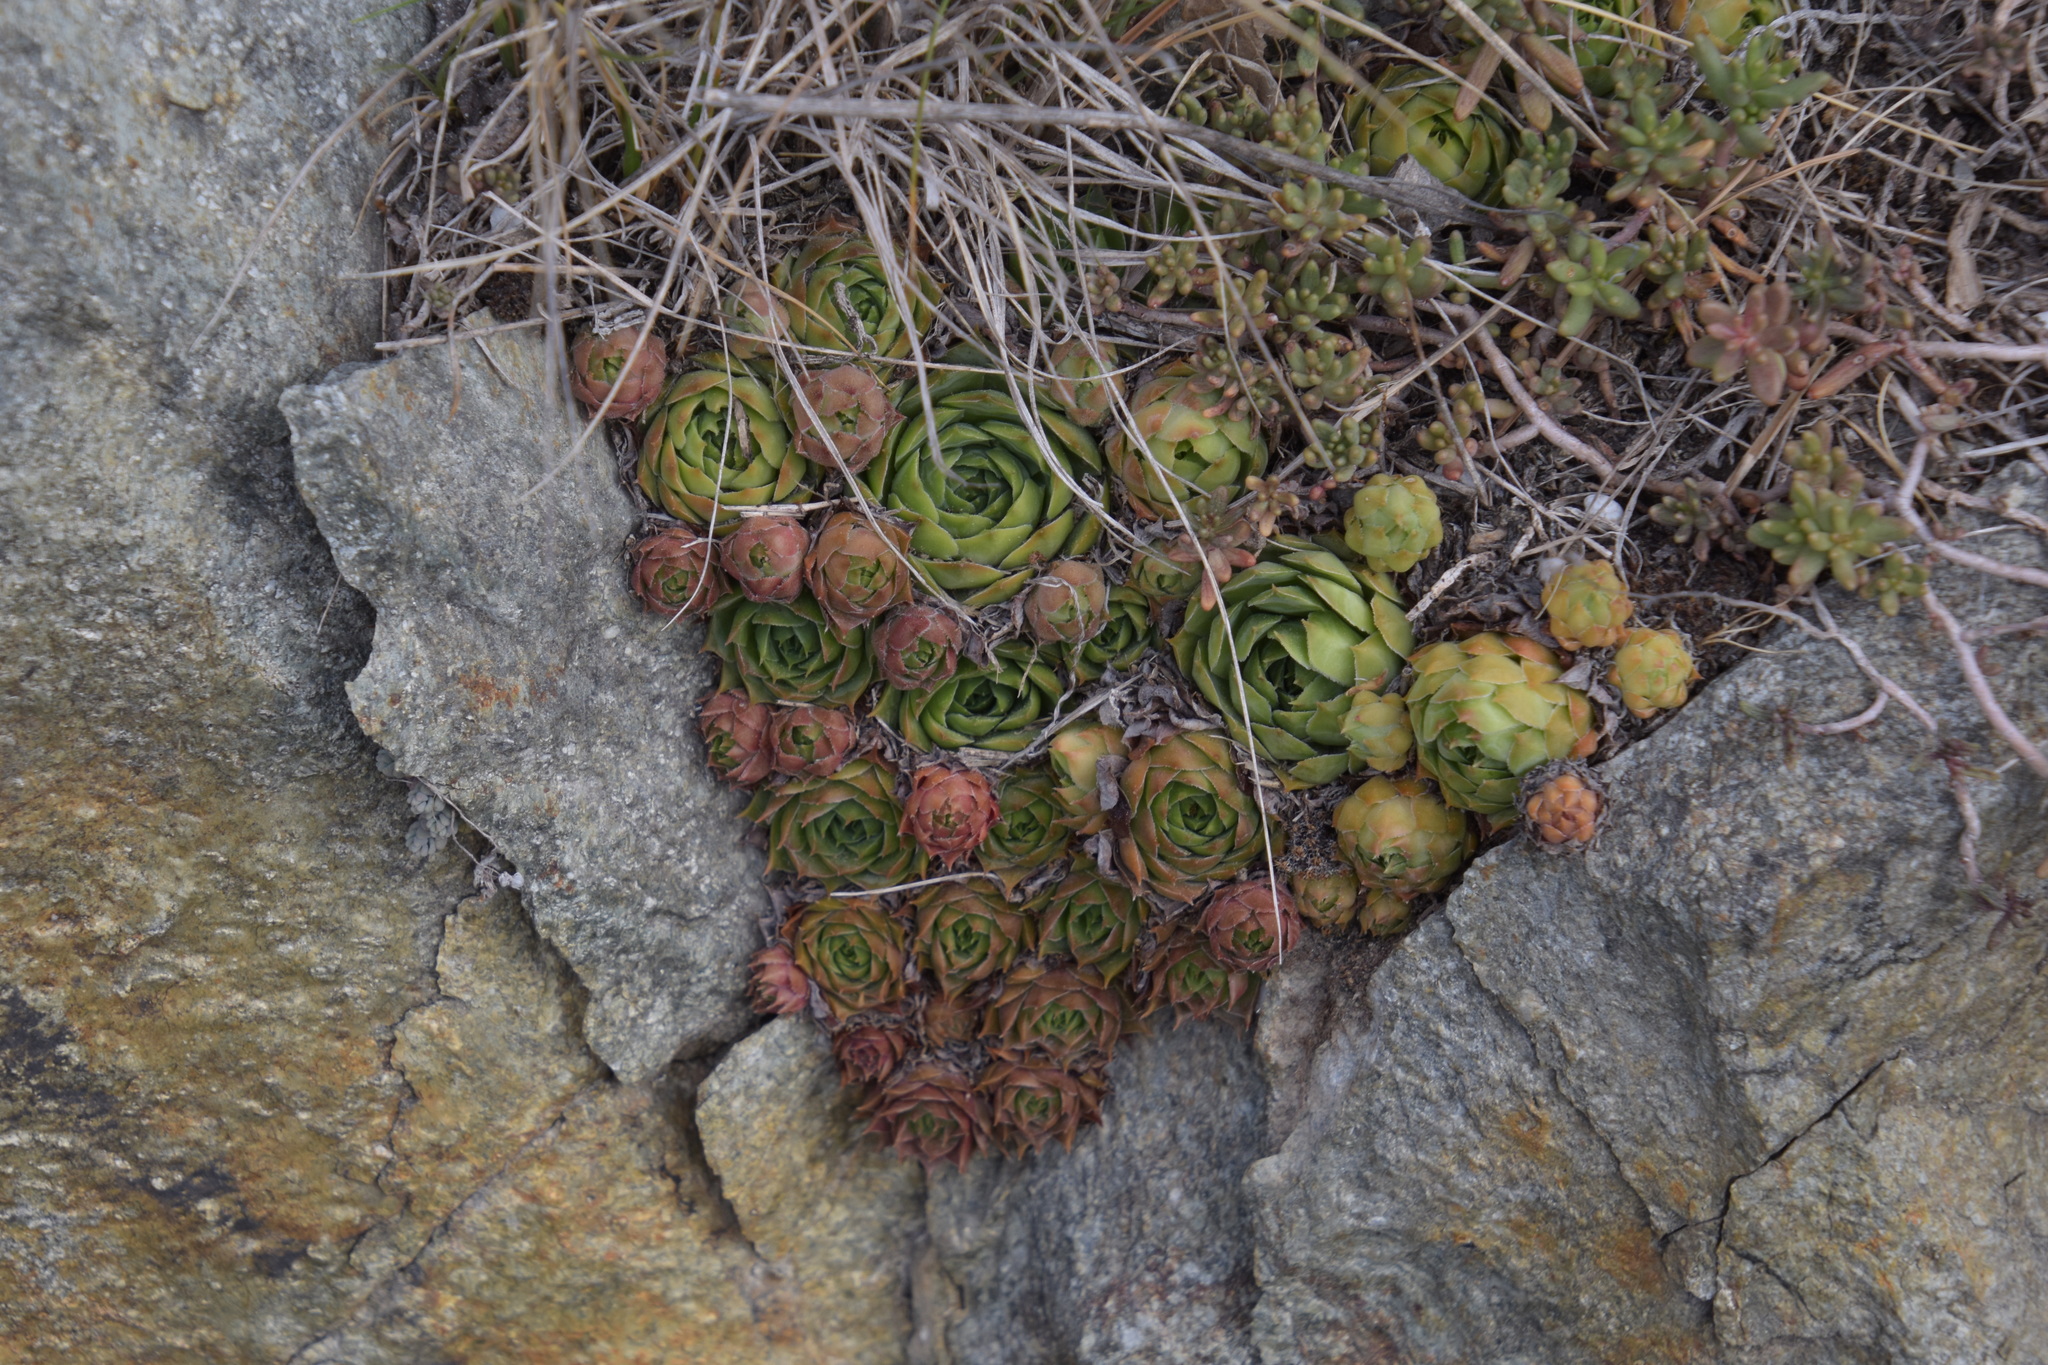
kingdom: Plantae
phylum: Tracheophyta
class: Magnoliopsida
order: Saxifragales
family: Crassulaceae
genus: Sempervivum
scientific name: Sempervivum tectorum
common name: House-leek
